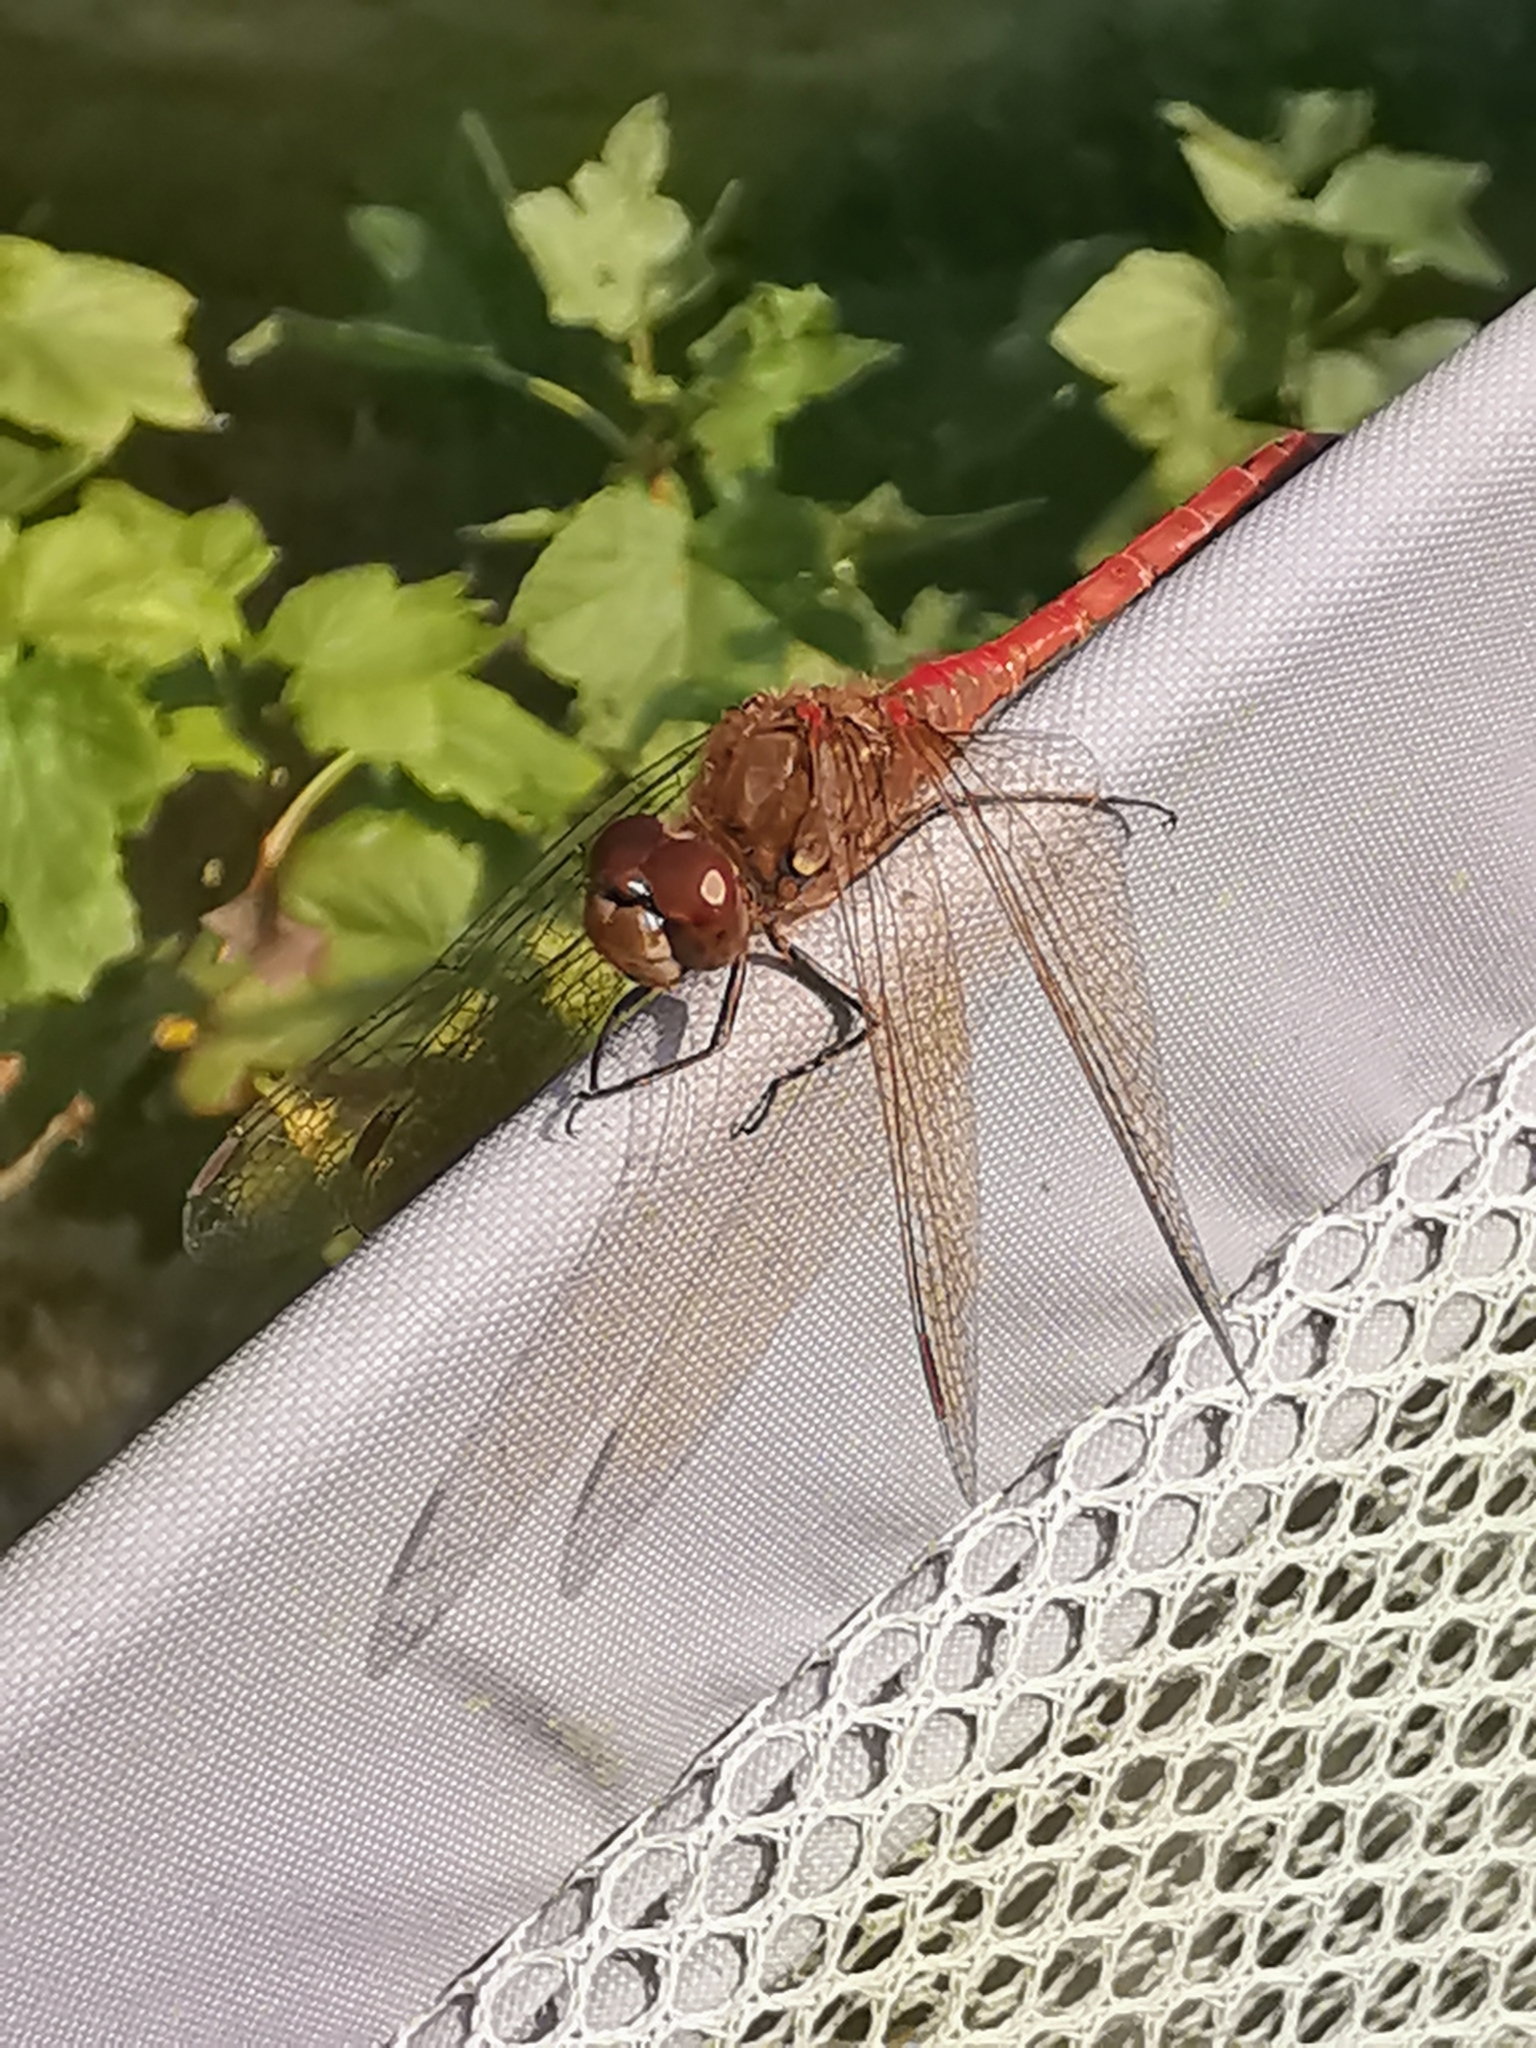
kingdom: Animalia
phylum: Arthropoda
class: Insecta
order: Odonata
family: Libellulidae
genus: Sympetrum
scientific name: Sympetrum striolatum
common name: Common darter
